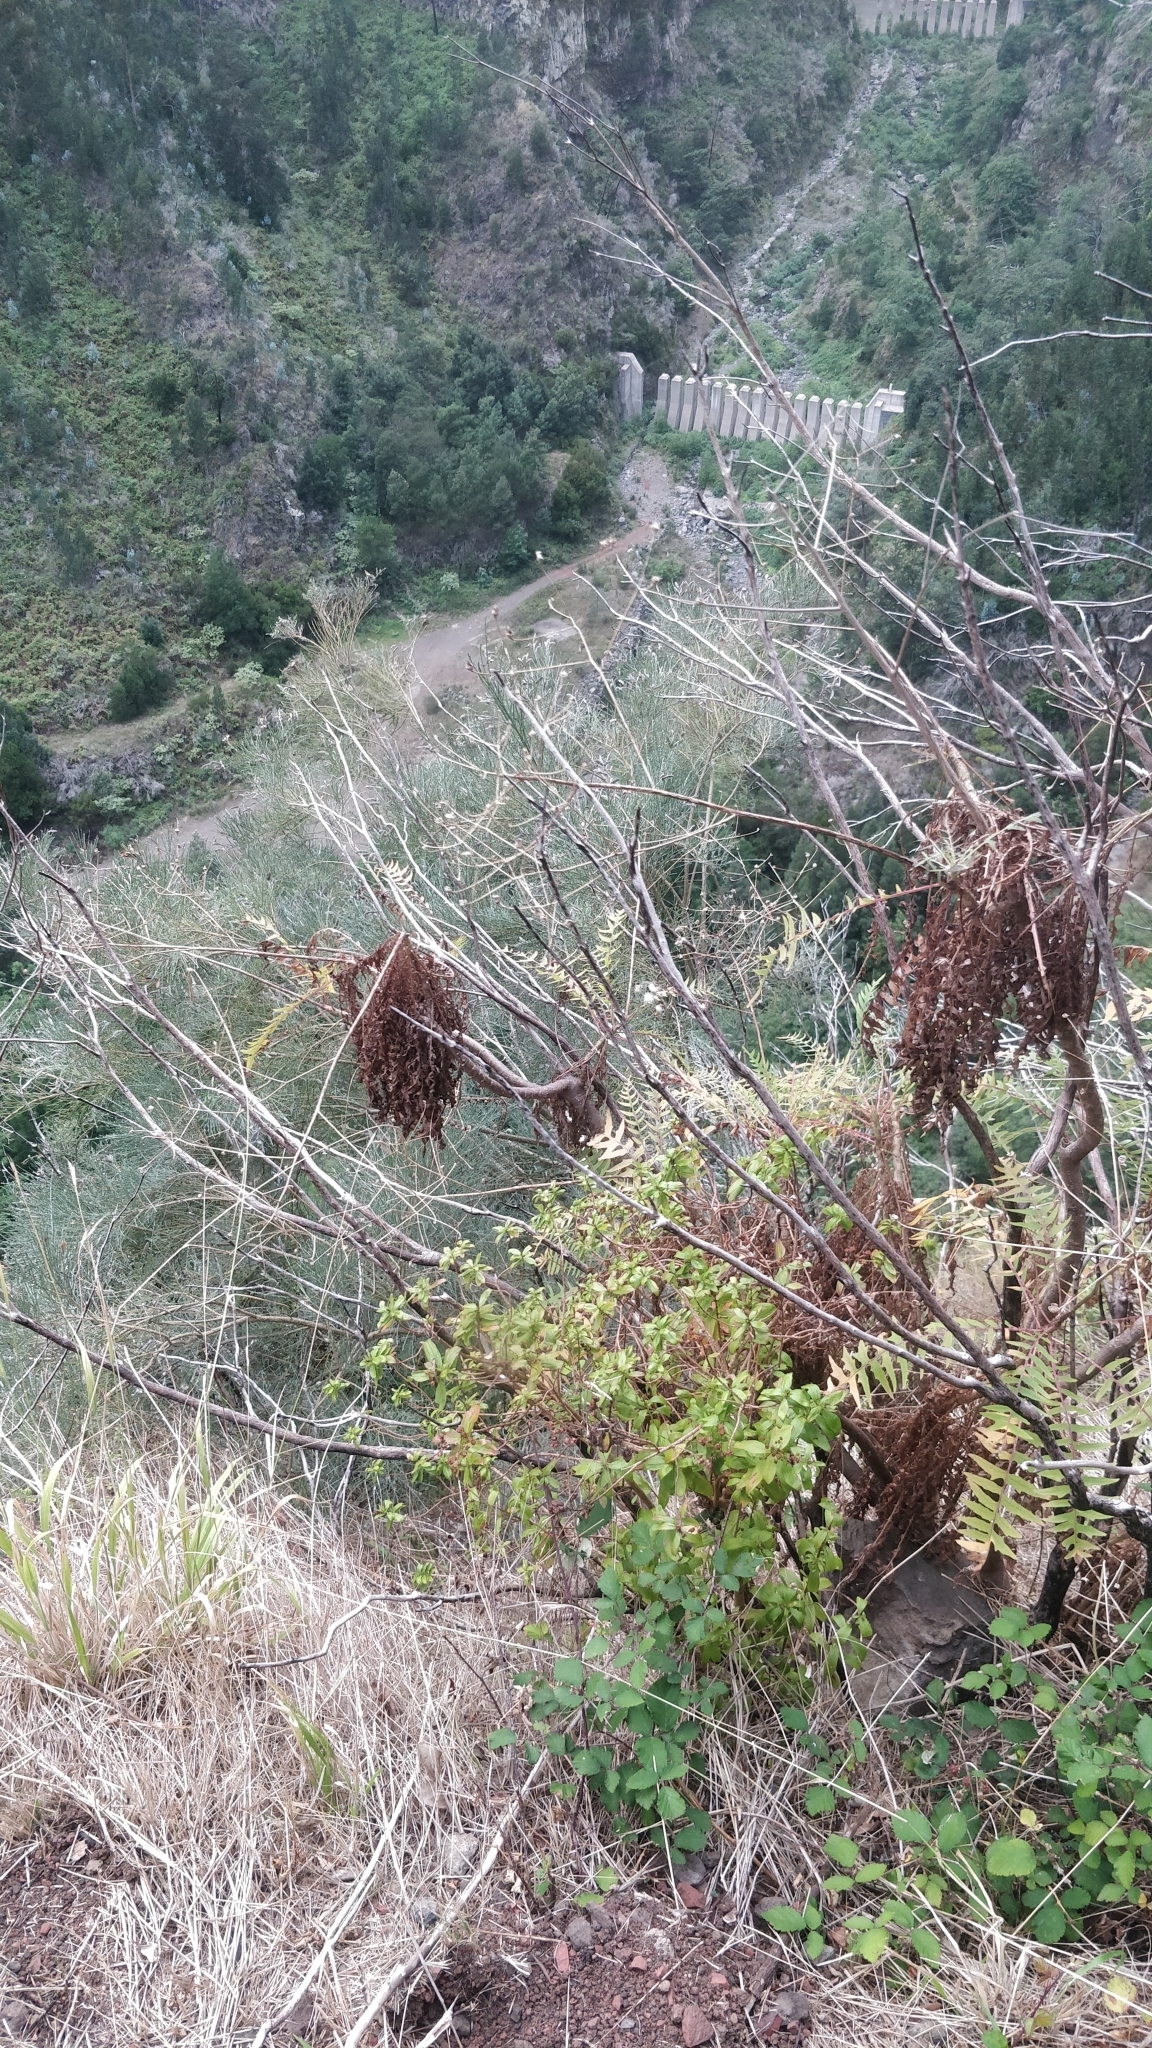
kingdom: Plantae
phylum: Tracheophyta
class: Magnoliopsida
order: Asterales
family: Asteraceae
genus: Sonchus
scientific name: Sonchus pinnatus
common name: Wing-leaved sow-thistle
